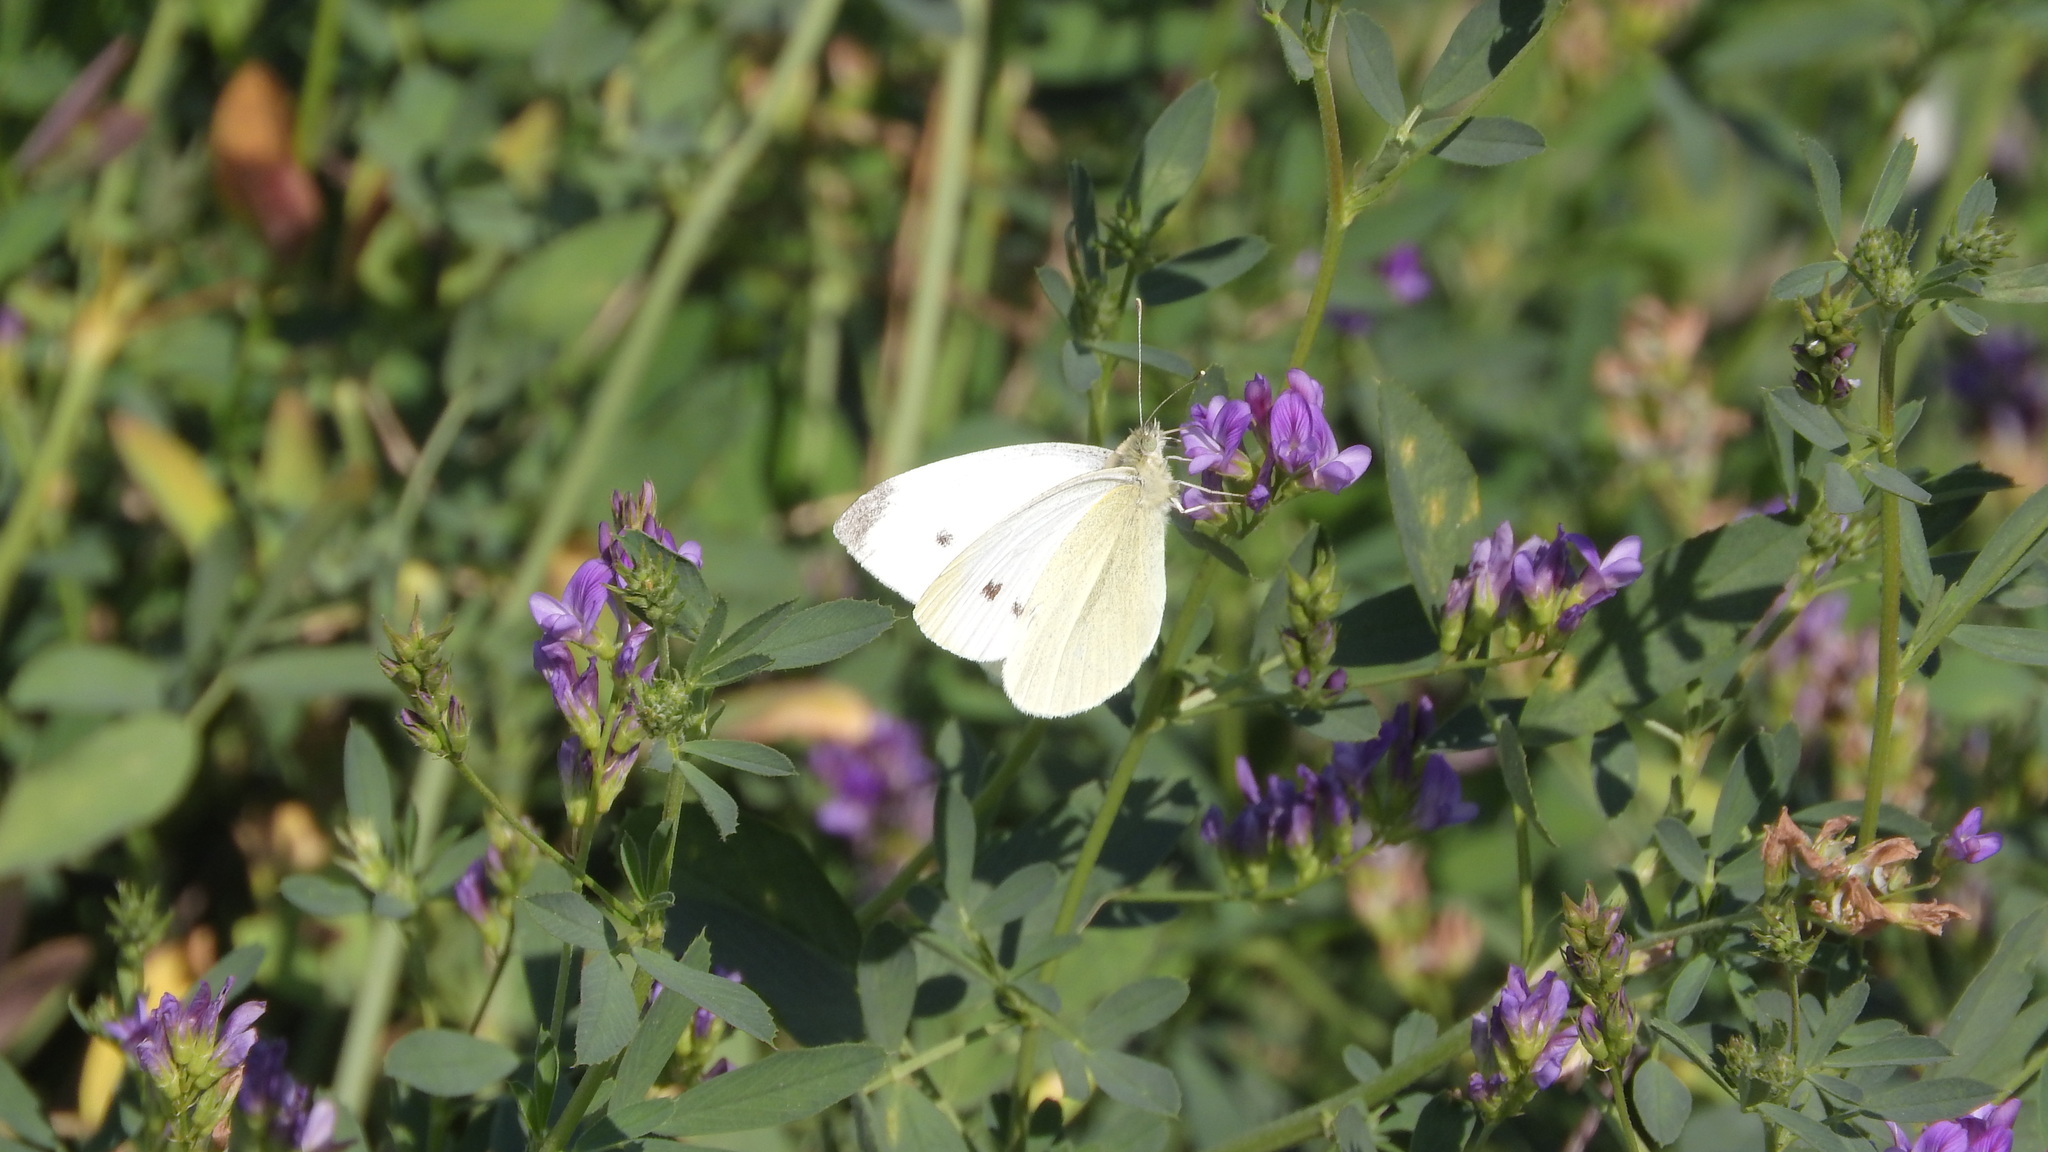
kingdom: Animalia
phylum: Arthropoda
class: Insecta
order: Lepidoptera
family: Pieridae
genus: Pieris
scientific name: Pieris rapae
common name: Small white
